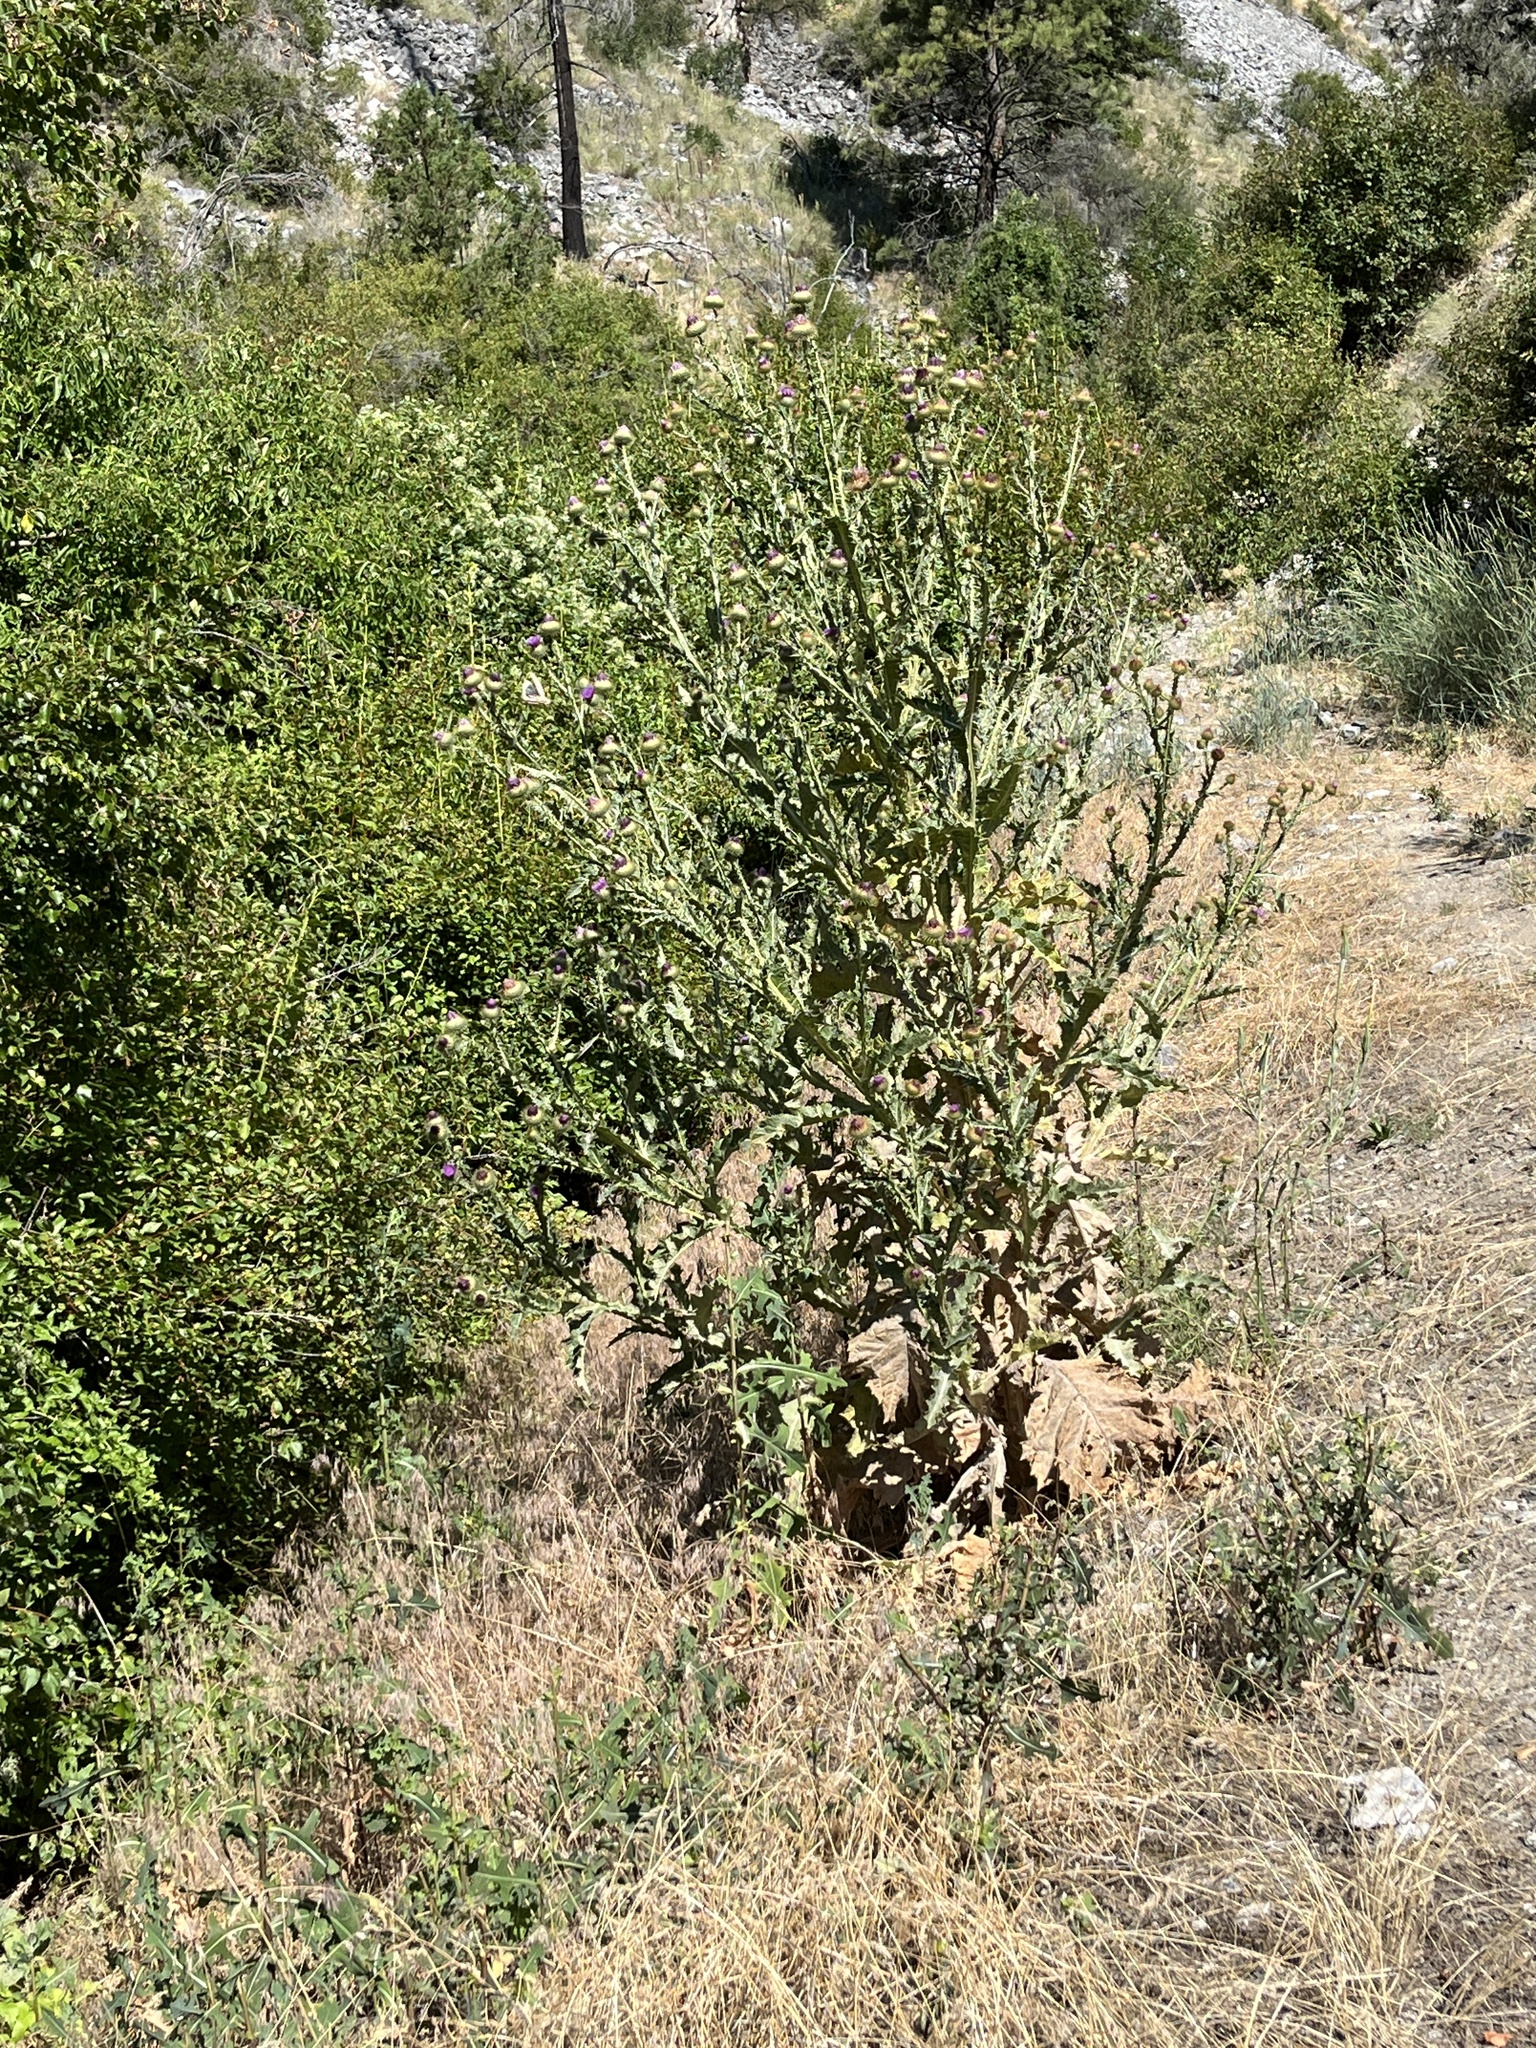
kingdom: Plantae
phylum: Tracheophyta
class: Magnoliopsida
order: Asterales
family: Asteraceae
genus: Onopordum
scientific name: Onopordum acanthium
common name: Scotch thistle
